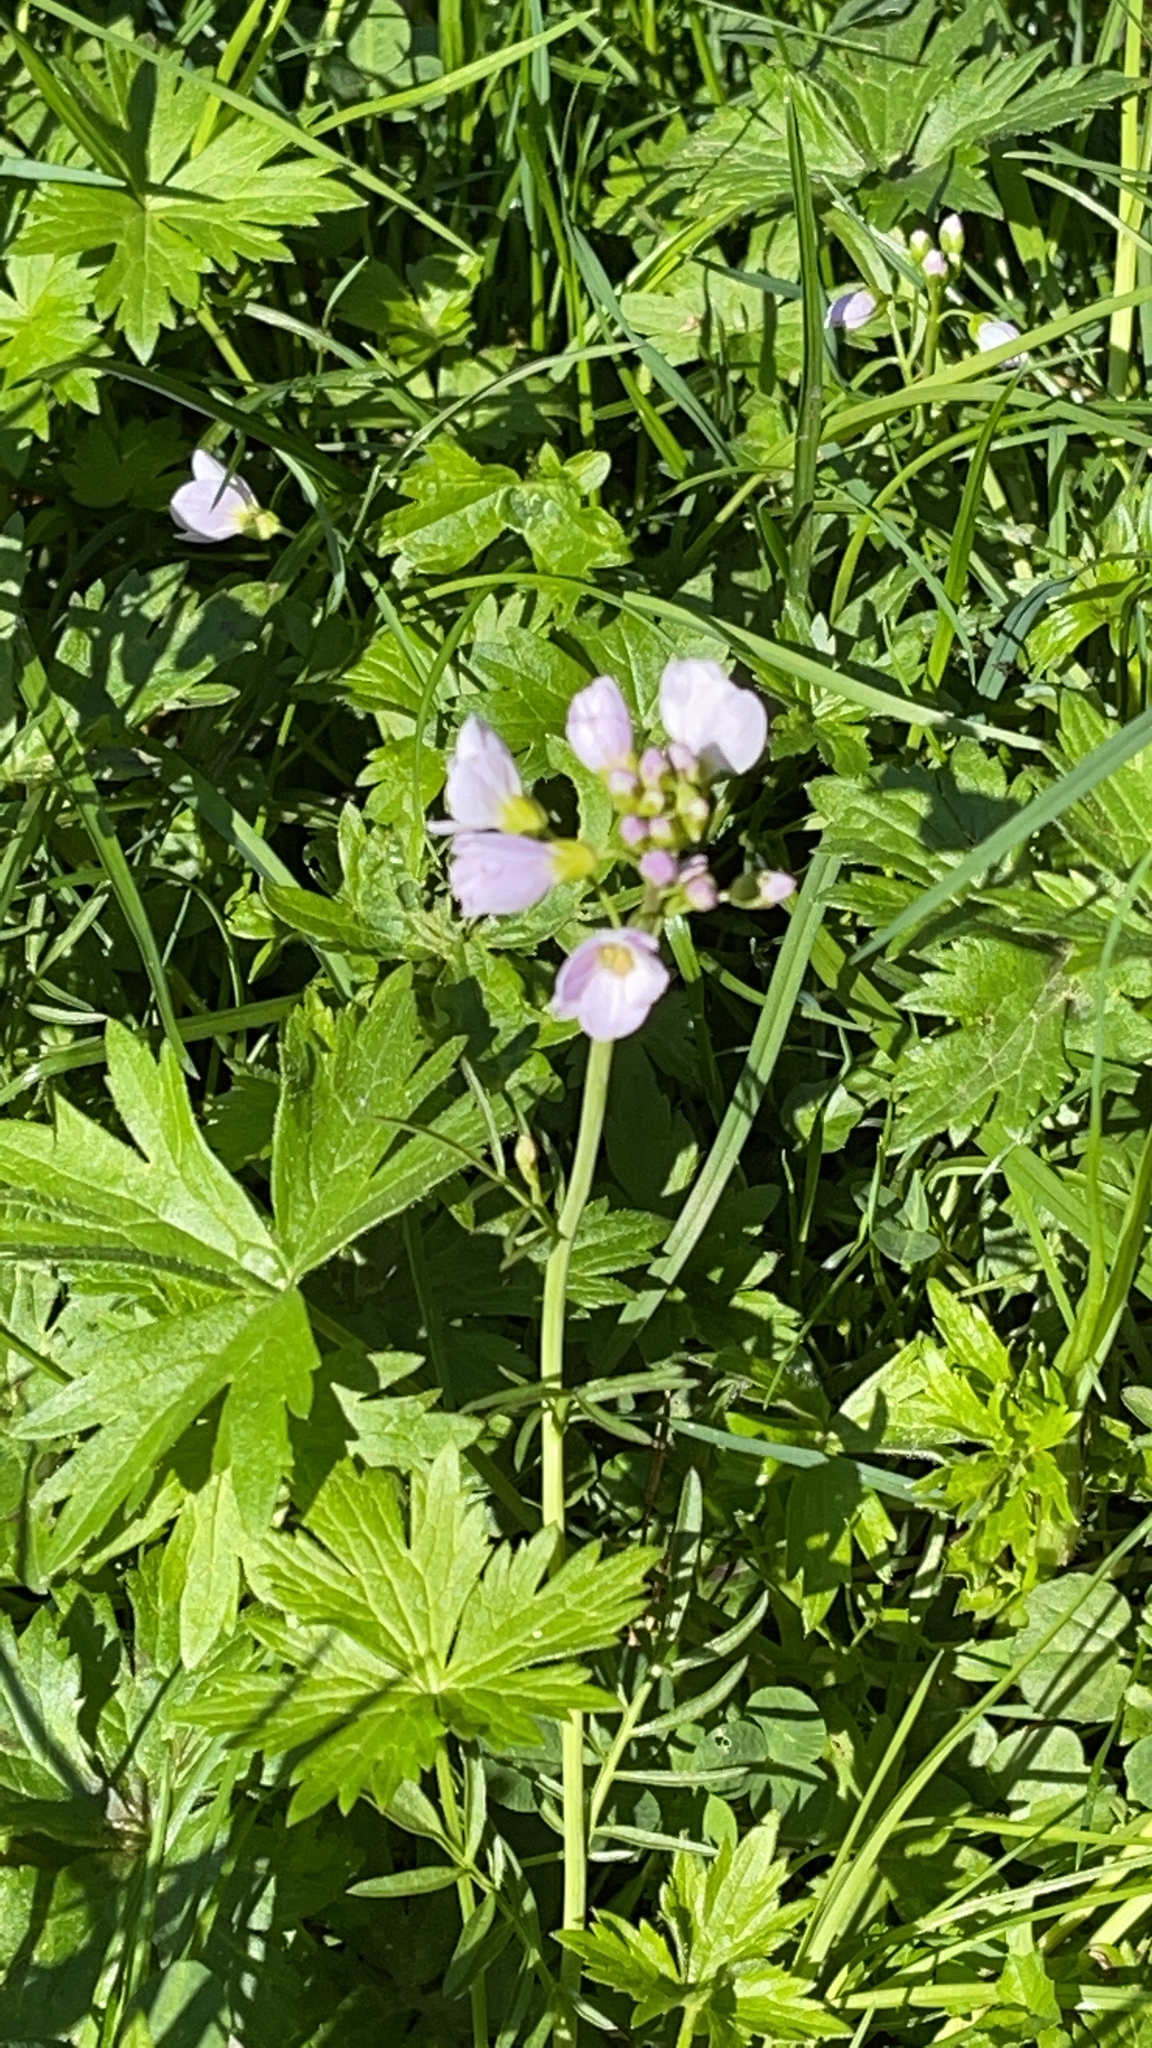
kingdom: Plantae
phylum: Tracheophyta
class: Magnoliopsida
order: Brassicales
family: Brassicaceae
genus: Cardamine
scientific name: Cardamine pratensis
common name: Cuckoo flower
